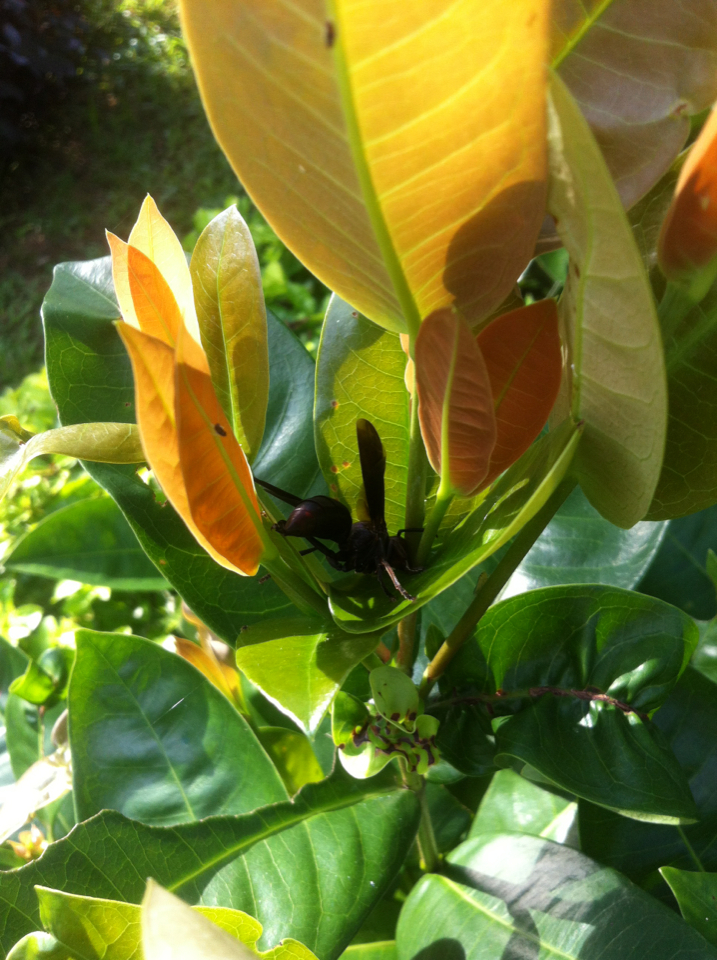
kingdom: Animalia
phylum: Arthropoda
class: Insecta
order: Hymenoptera
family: Eumenidae
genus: Polistes
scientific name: Polistes gigas
